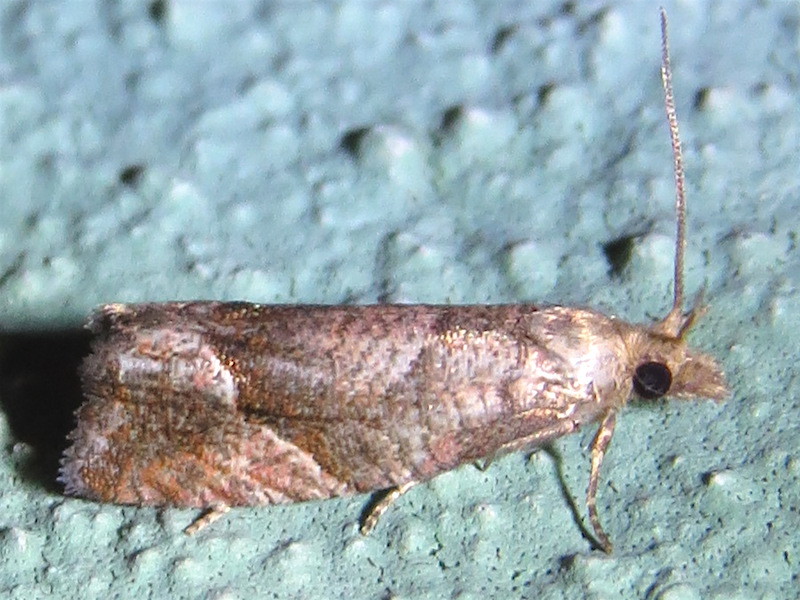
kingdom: Animalia
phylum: Arthropoda
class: Insecta
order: Lepidoptera
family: Tortricidae
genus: Pelochrista
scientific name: Pelochrista derelicta
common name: Derelict pelochrista moth
